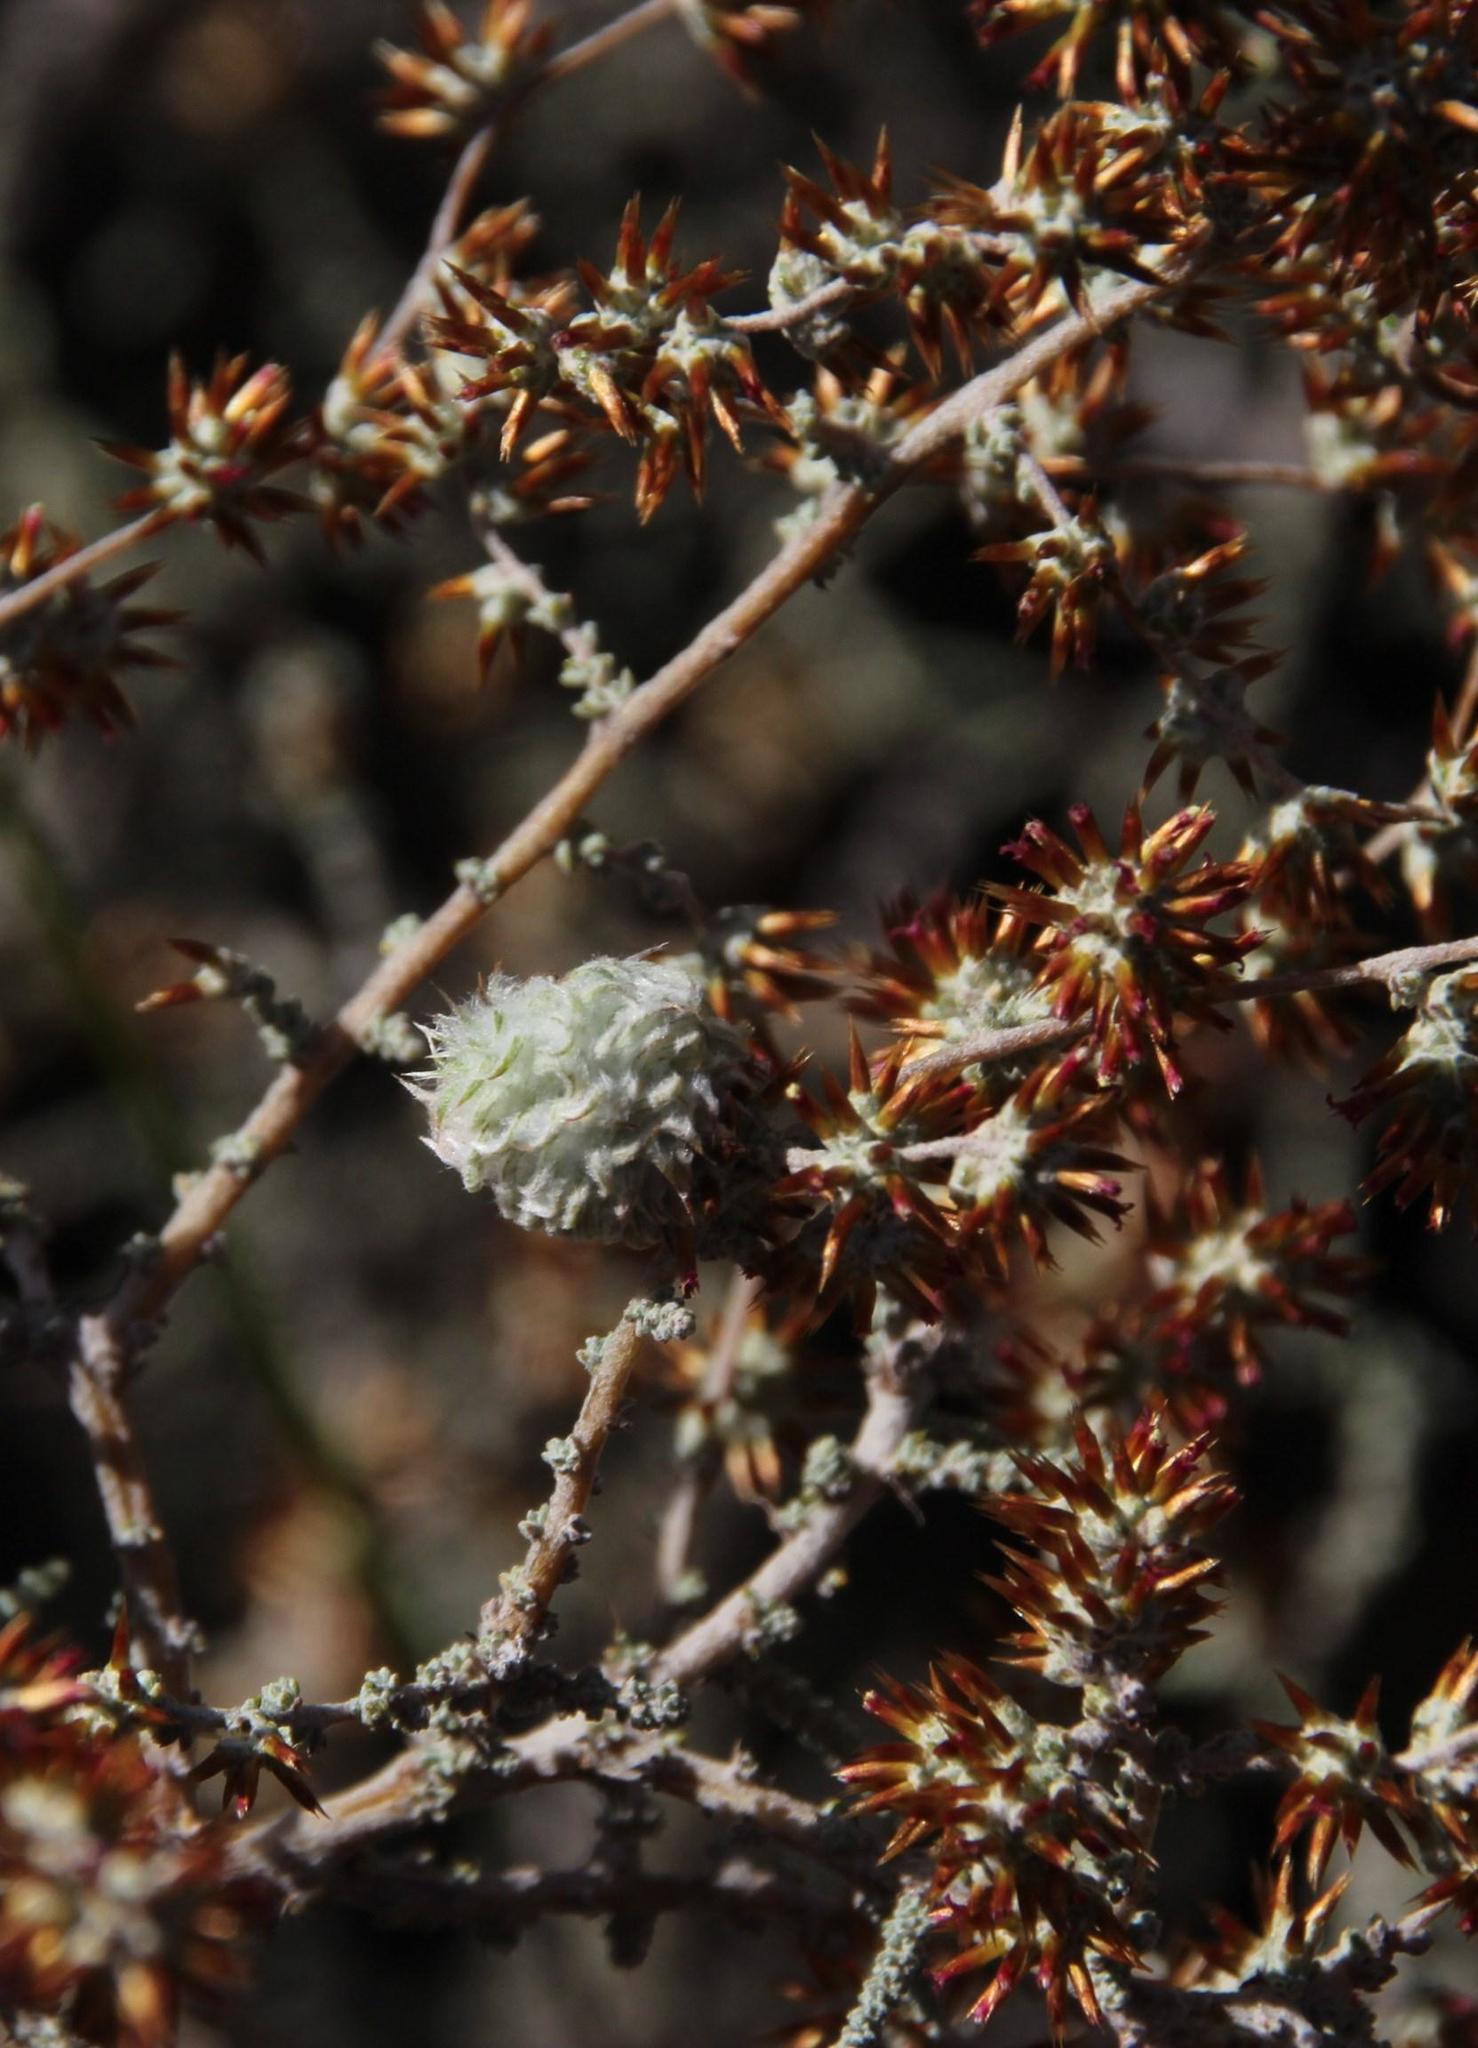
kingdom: Plantae
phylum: Tracheophyta
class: Magnoliopsida
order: Asterales
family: Asteraceae
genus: Seriphium
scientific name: Seriphium plumosum
